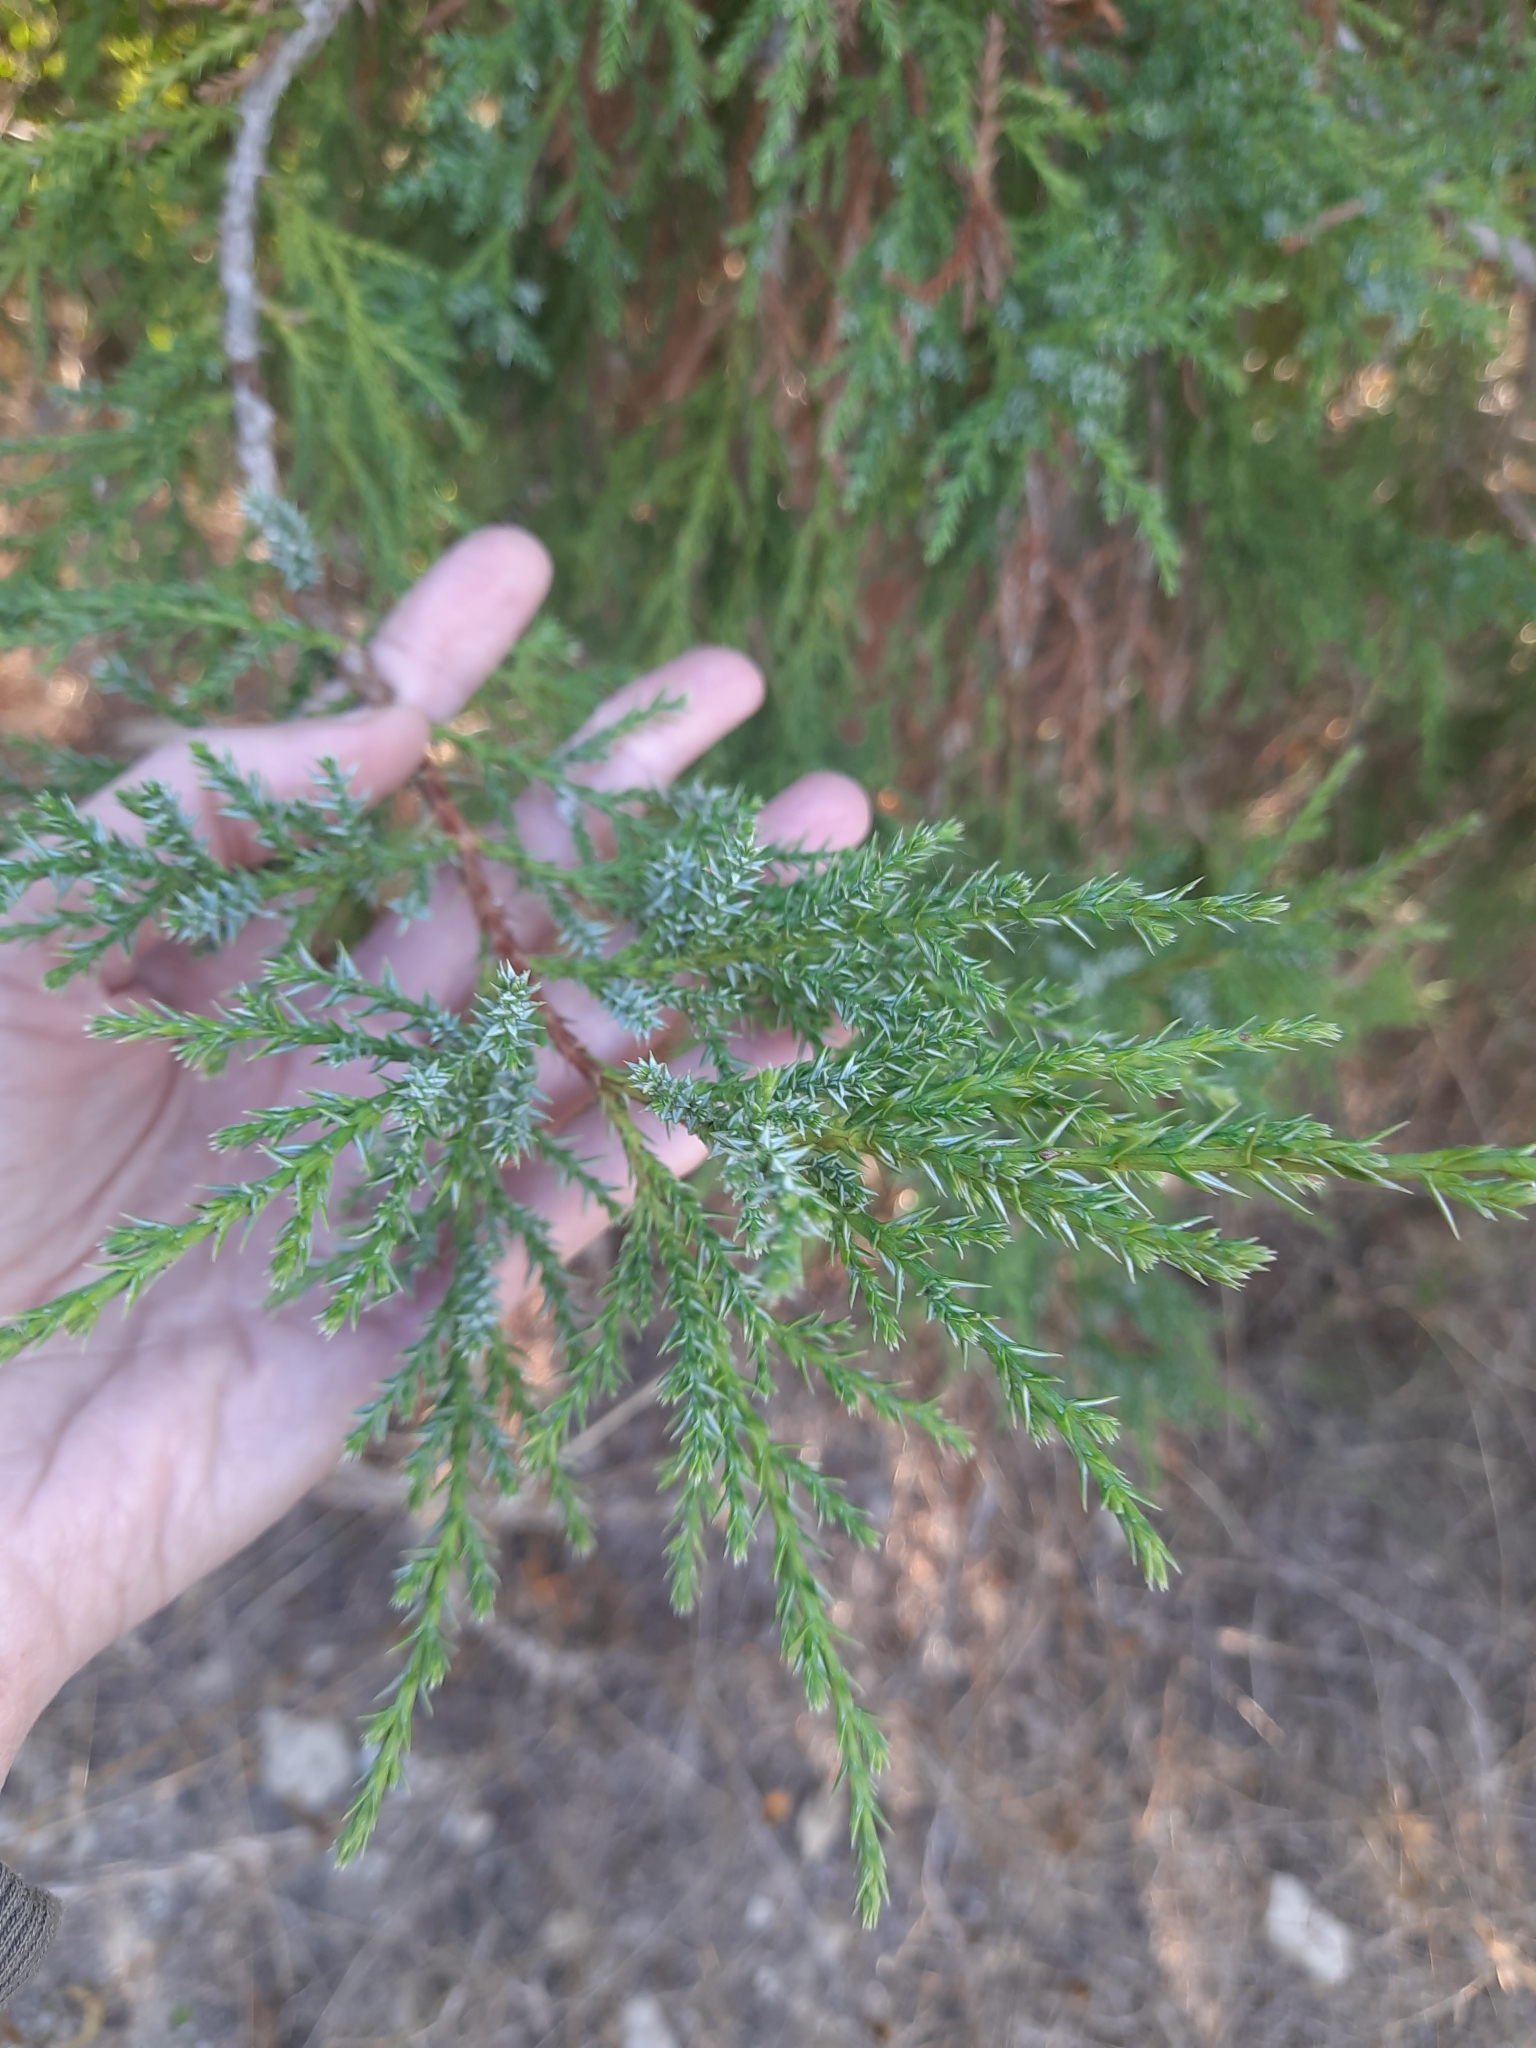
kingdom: Plantae
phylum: Tracheophyta
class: Pinopsida
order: Pinales
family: Cupressaceae
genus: Juniperus
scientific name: Juniperus foetidissima
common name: Stinking juniper
